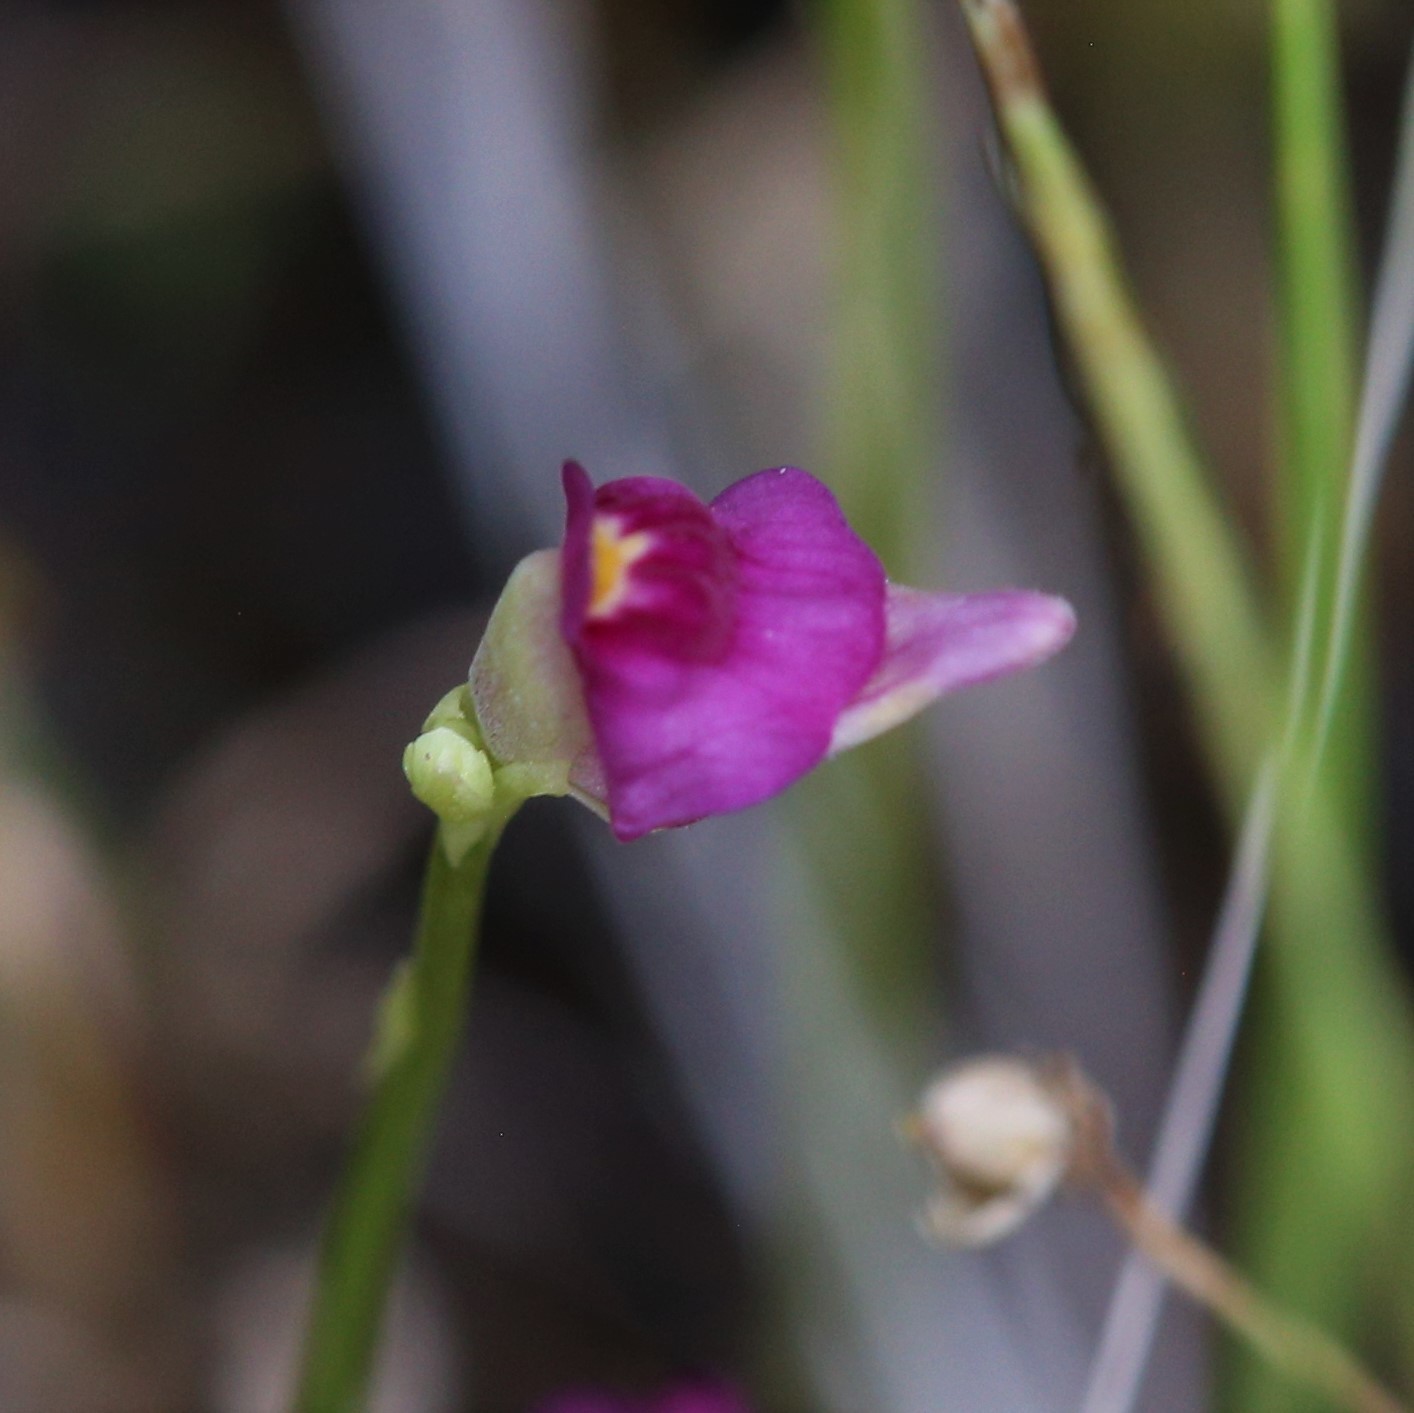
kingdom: Plantae
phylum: Tracheophyta
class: Magnoliopsida
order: Lamiales
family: Lentibulariaceae
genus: Utricularia
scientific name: Utricularia caerulea
